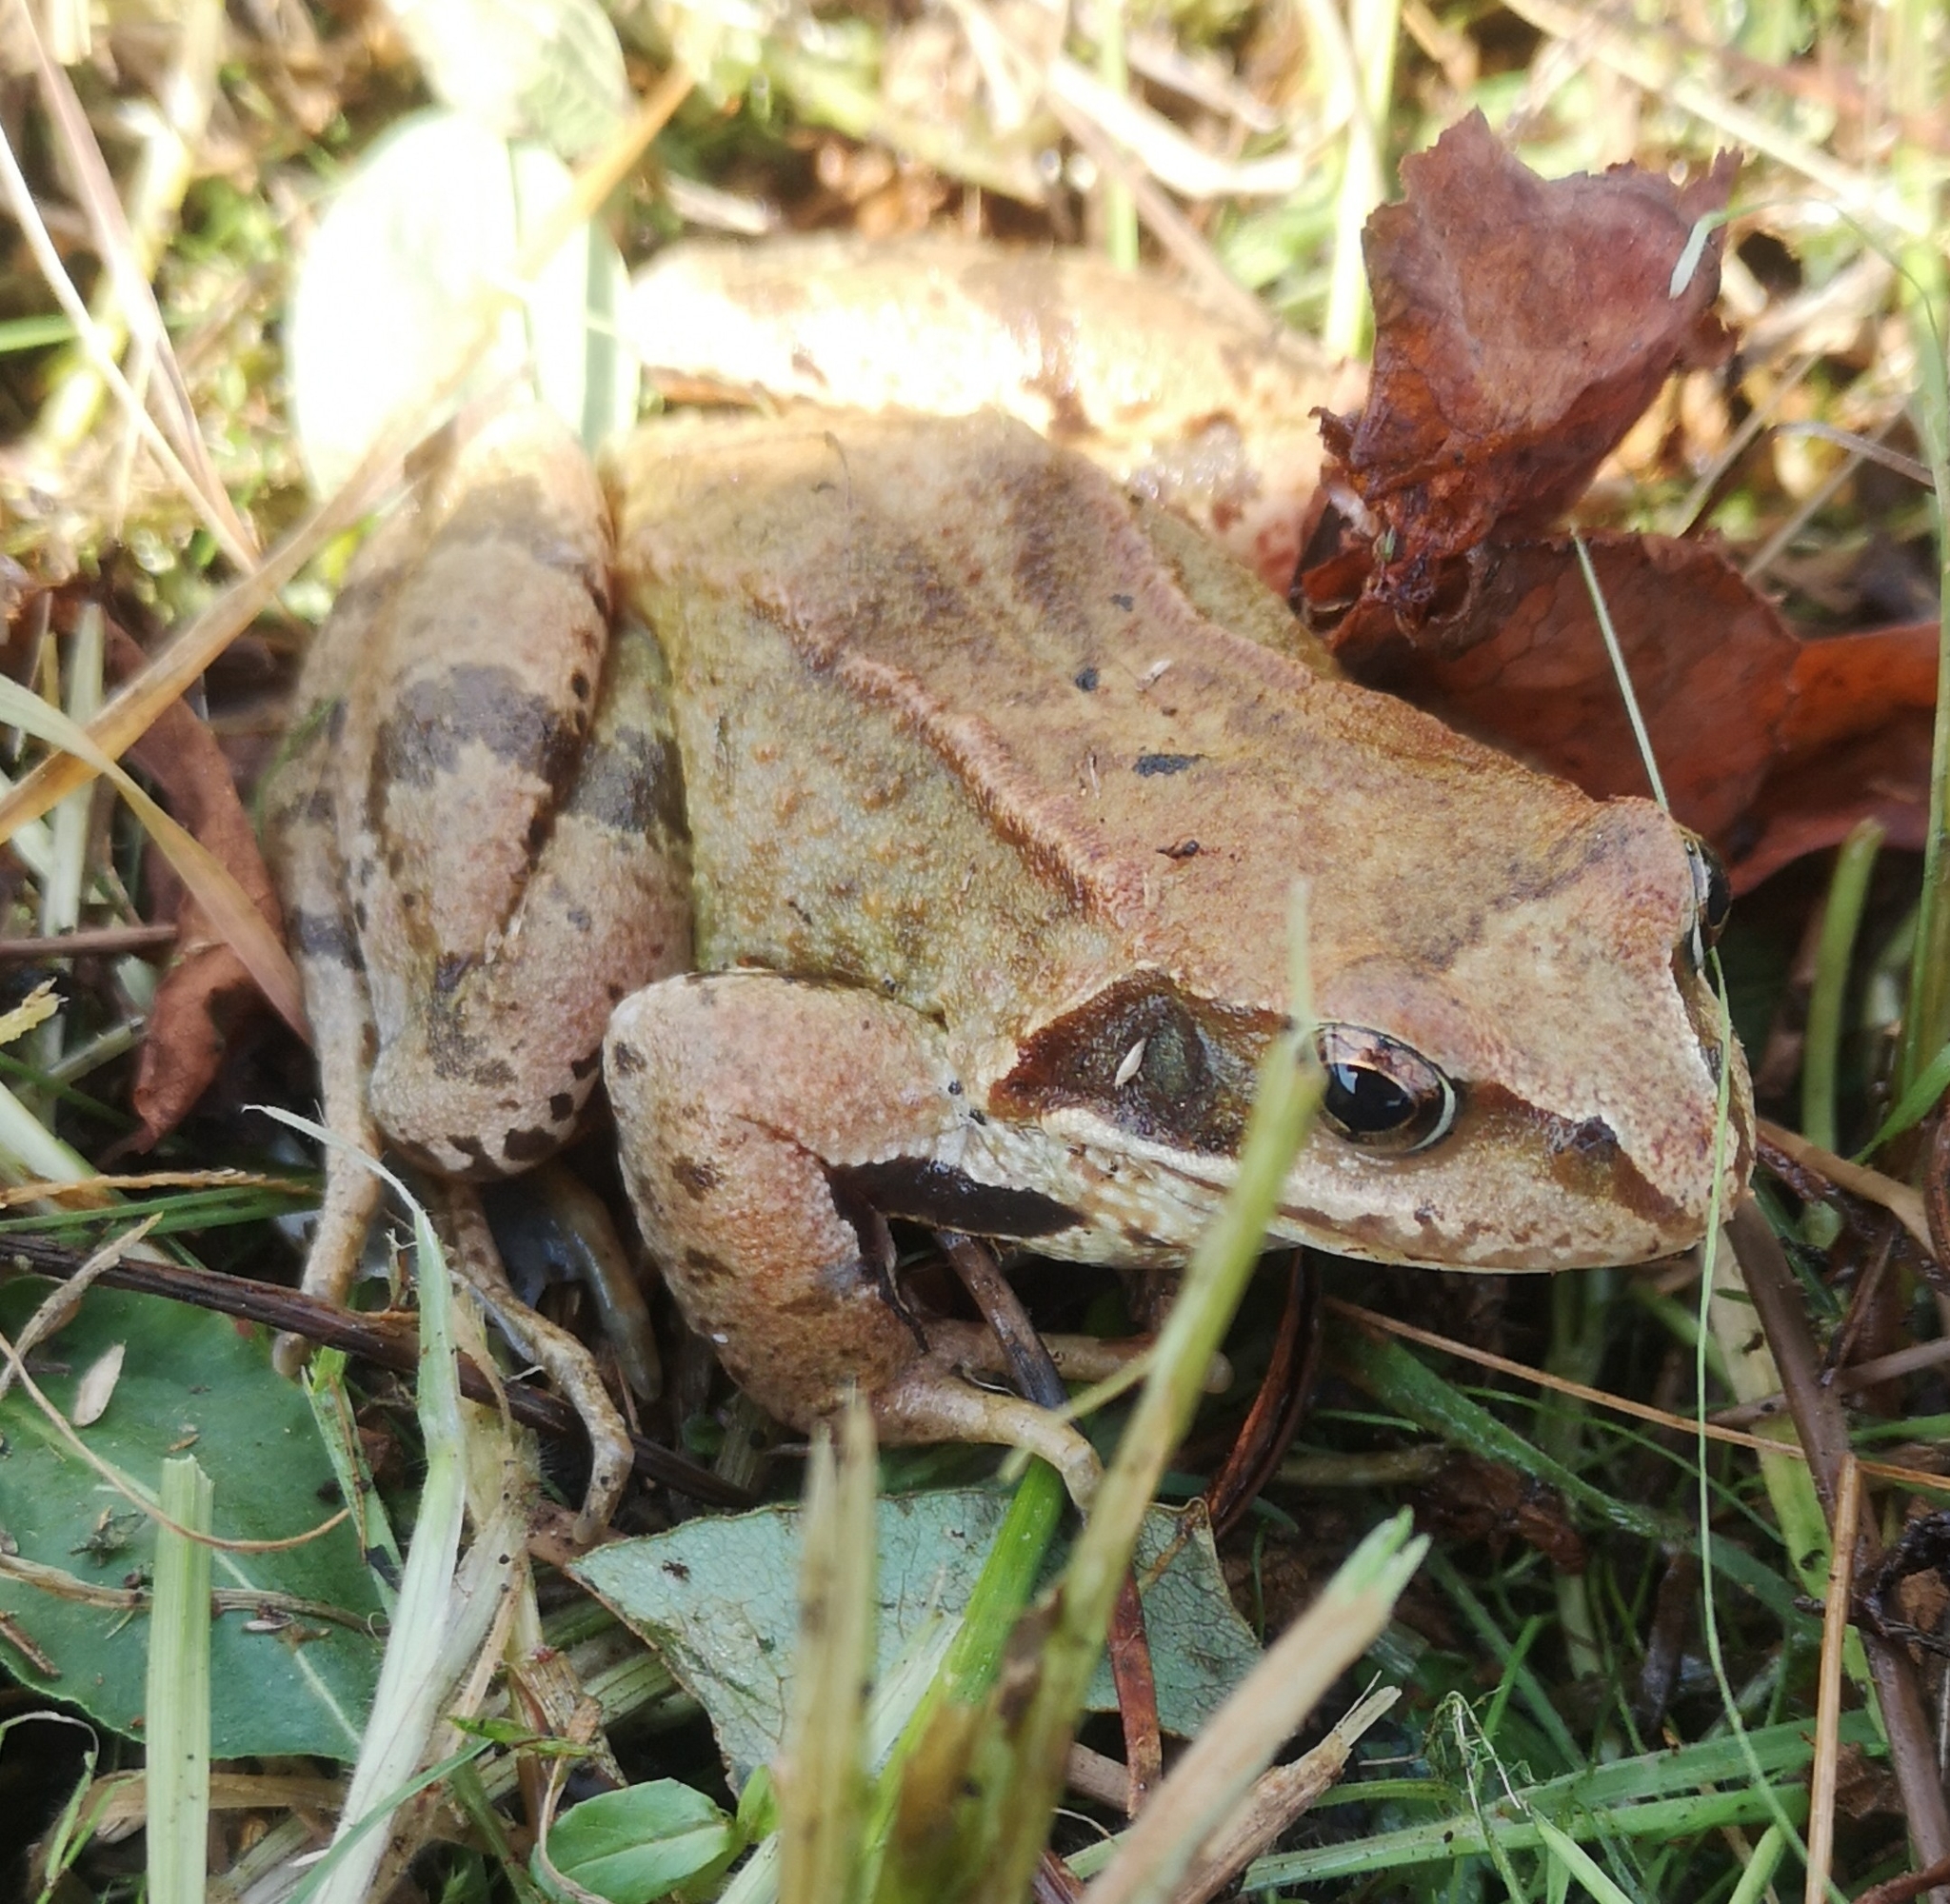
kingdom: Animalia
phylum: Chordata
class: Amphibia
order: Anura
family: Ranidae
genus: Rana
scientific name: Rana temporaria
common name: Common frog
